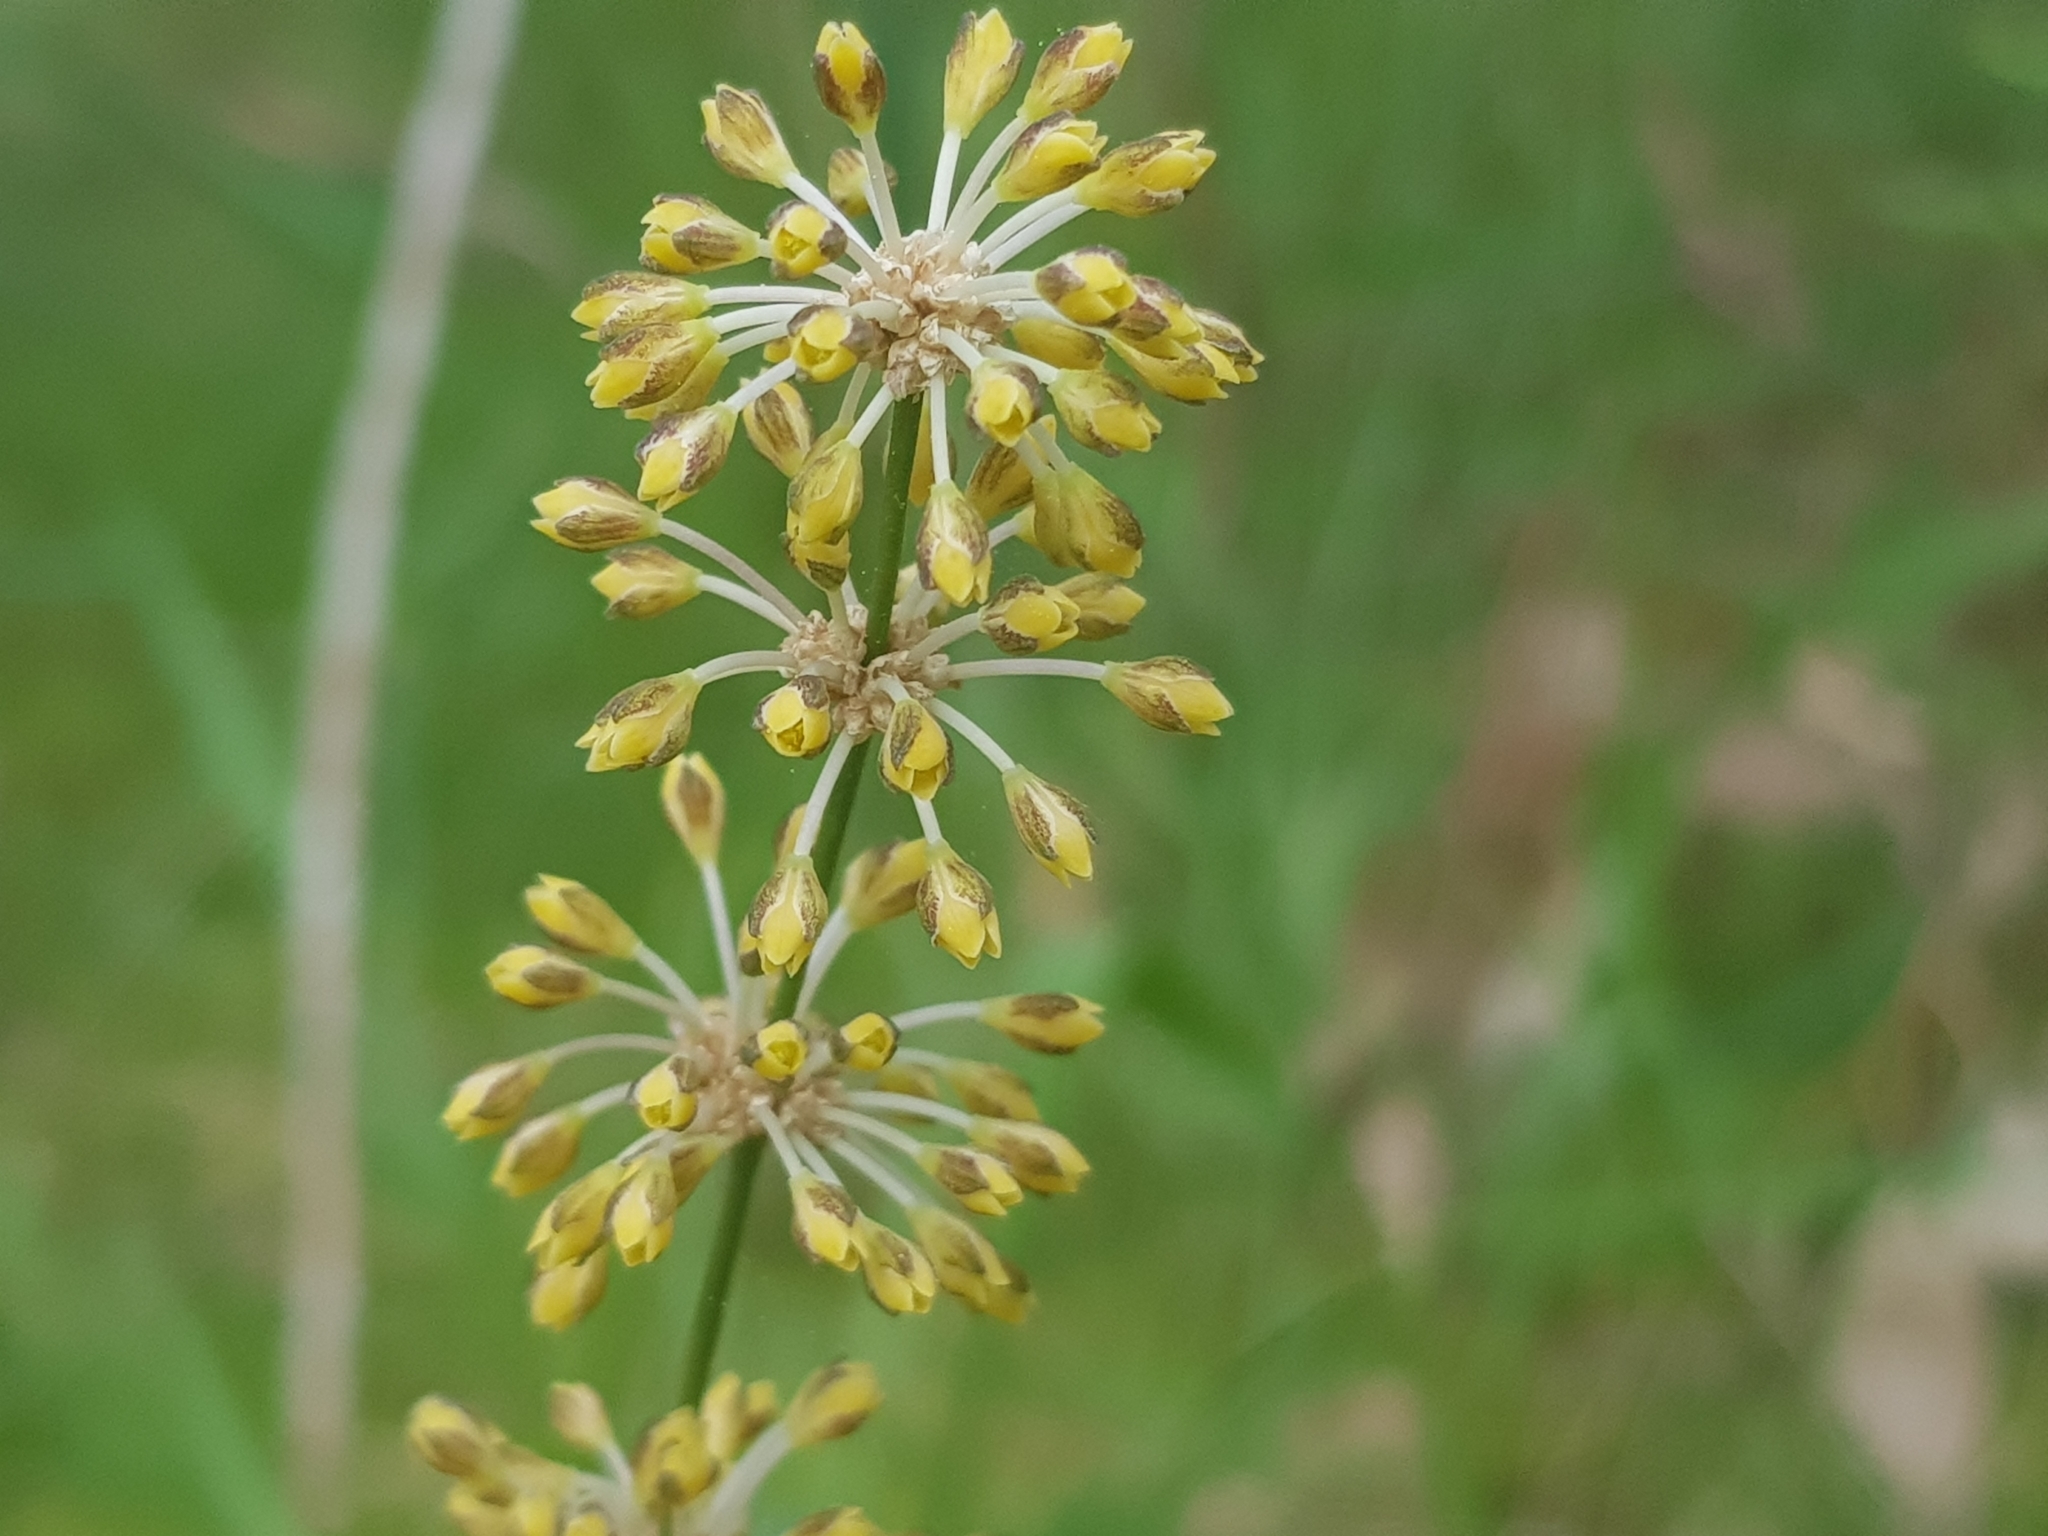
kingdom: Plantae
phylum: Tracheophyta
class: Liliopsida
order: Asparagales
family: Asparagaceae
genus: Lomandra
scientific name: Lomandra multiflora
